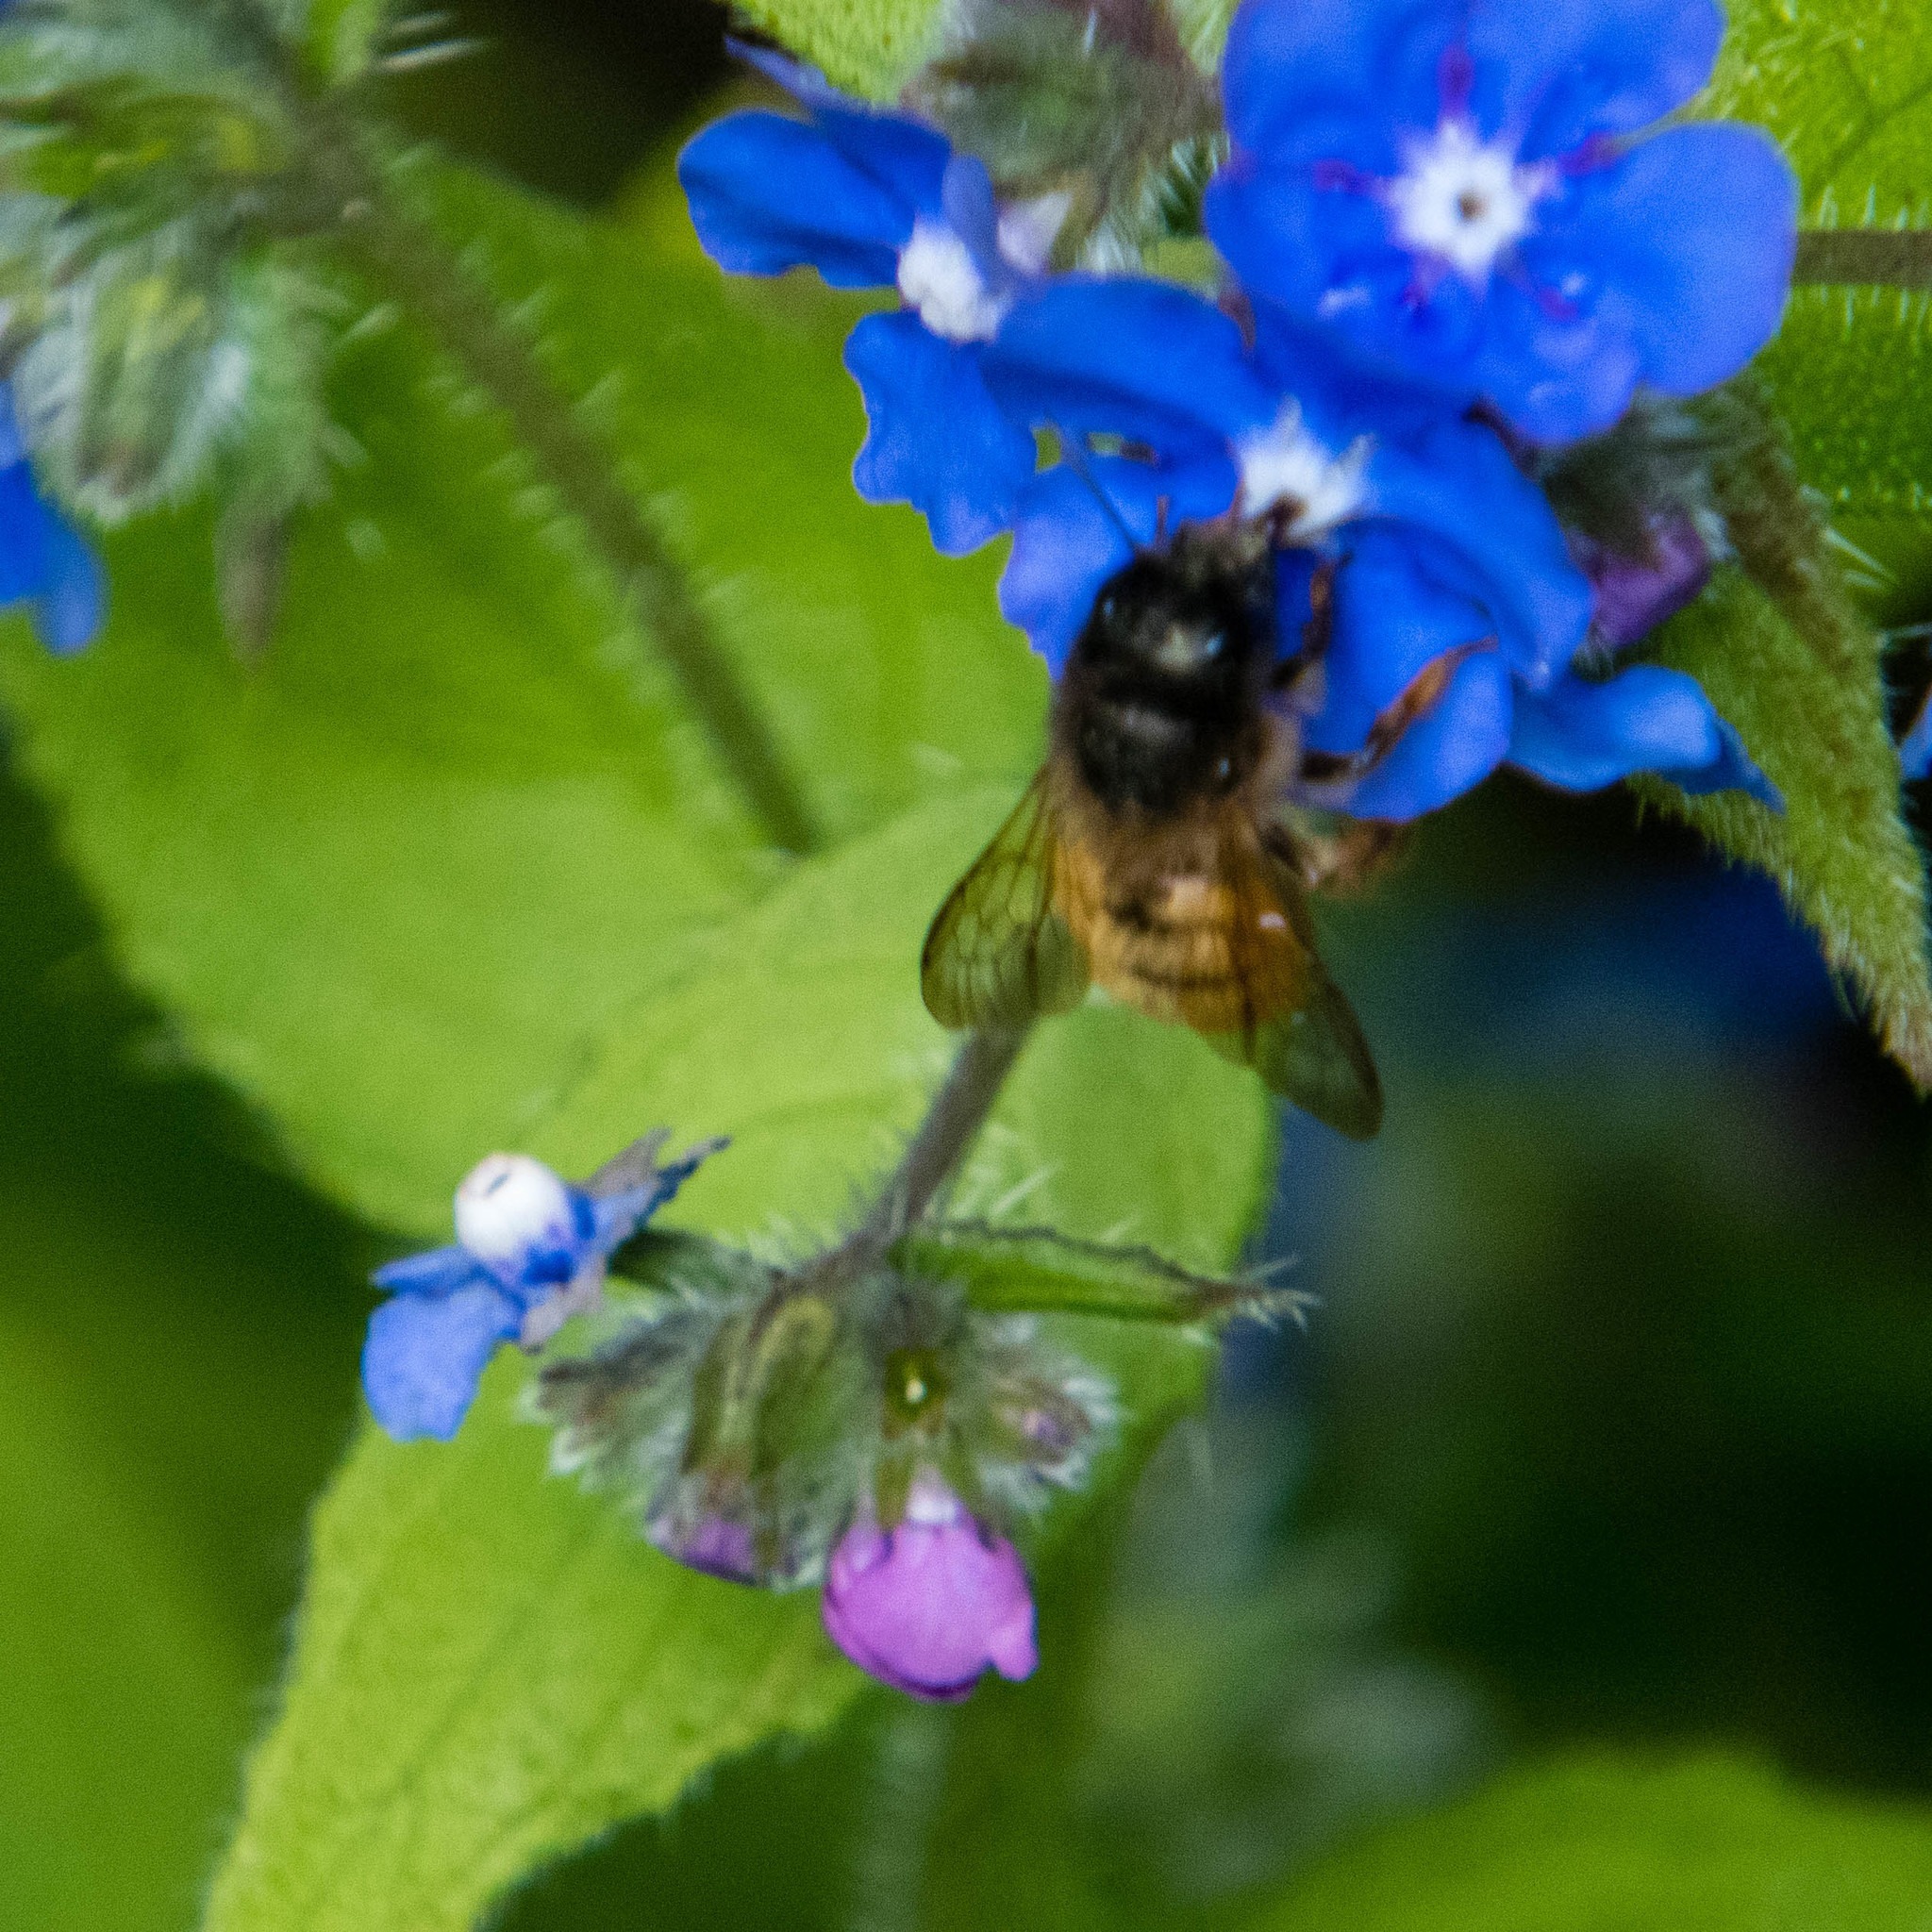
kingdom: Animalia
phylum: Arthropoda
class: Insecta
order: Hymenoptera
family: Megachilidae
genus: Osmia
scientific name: Osmia bicornis
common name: Red mason bee
